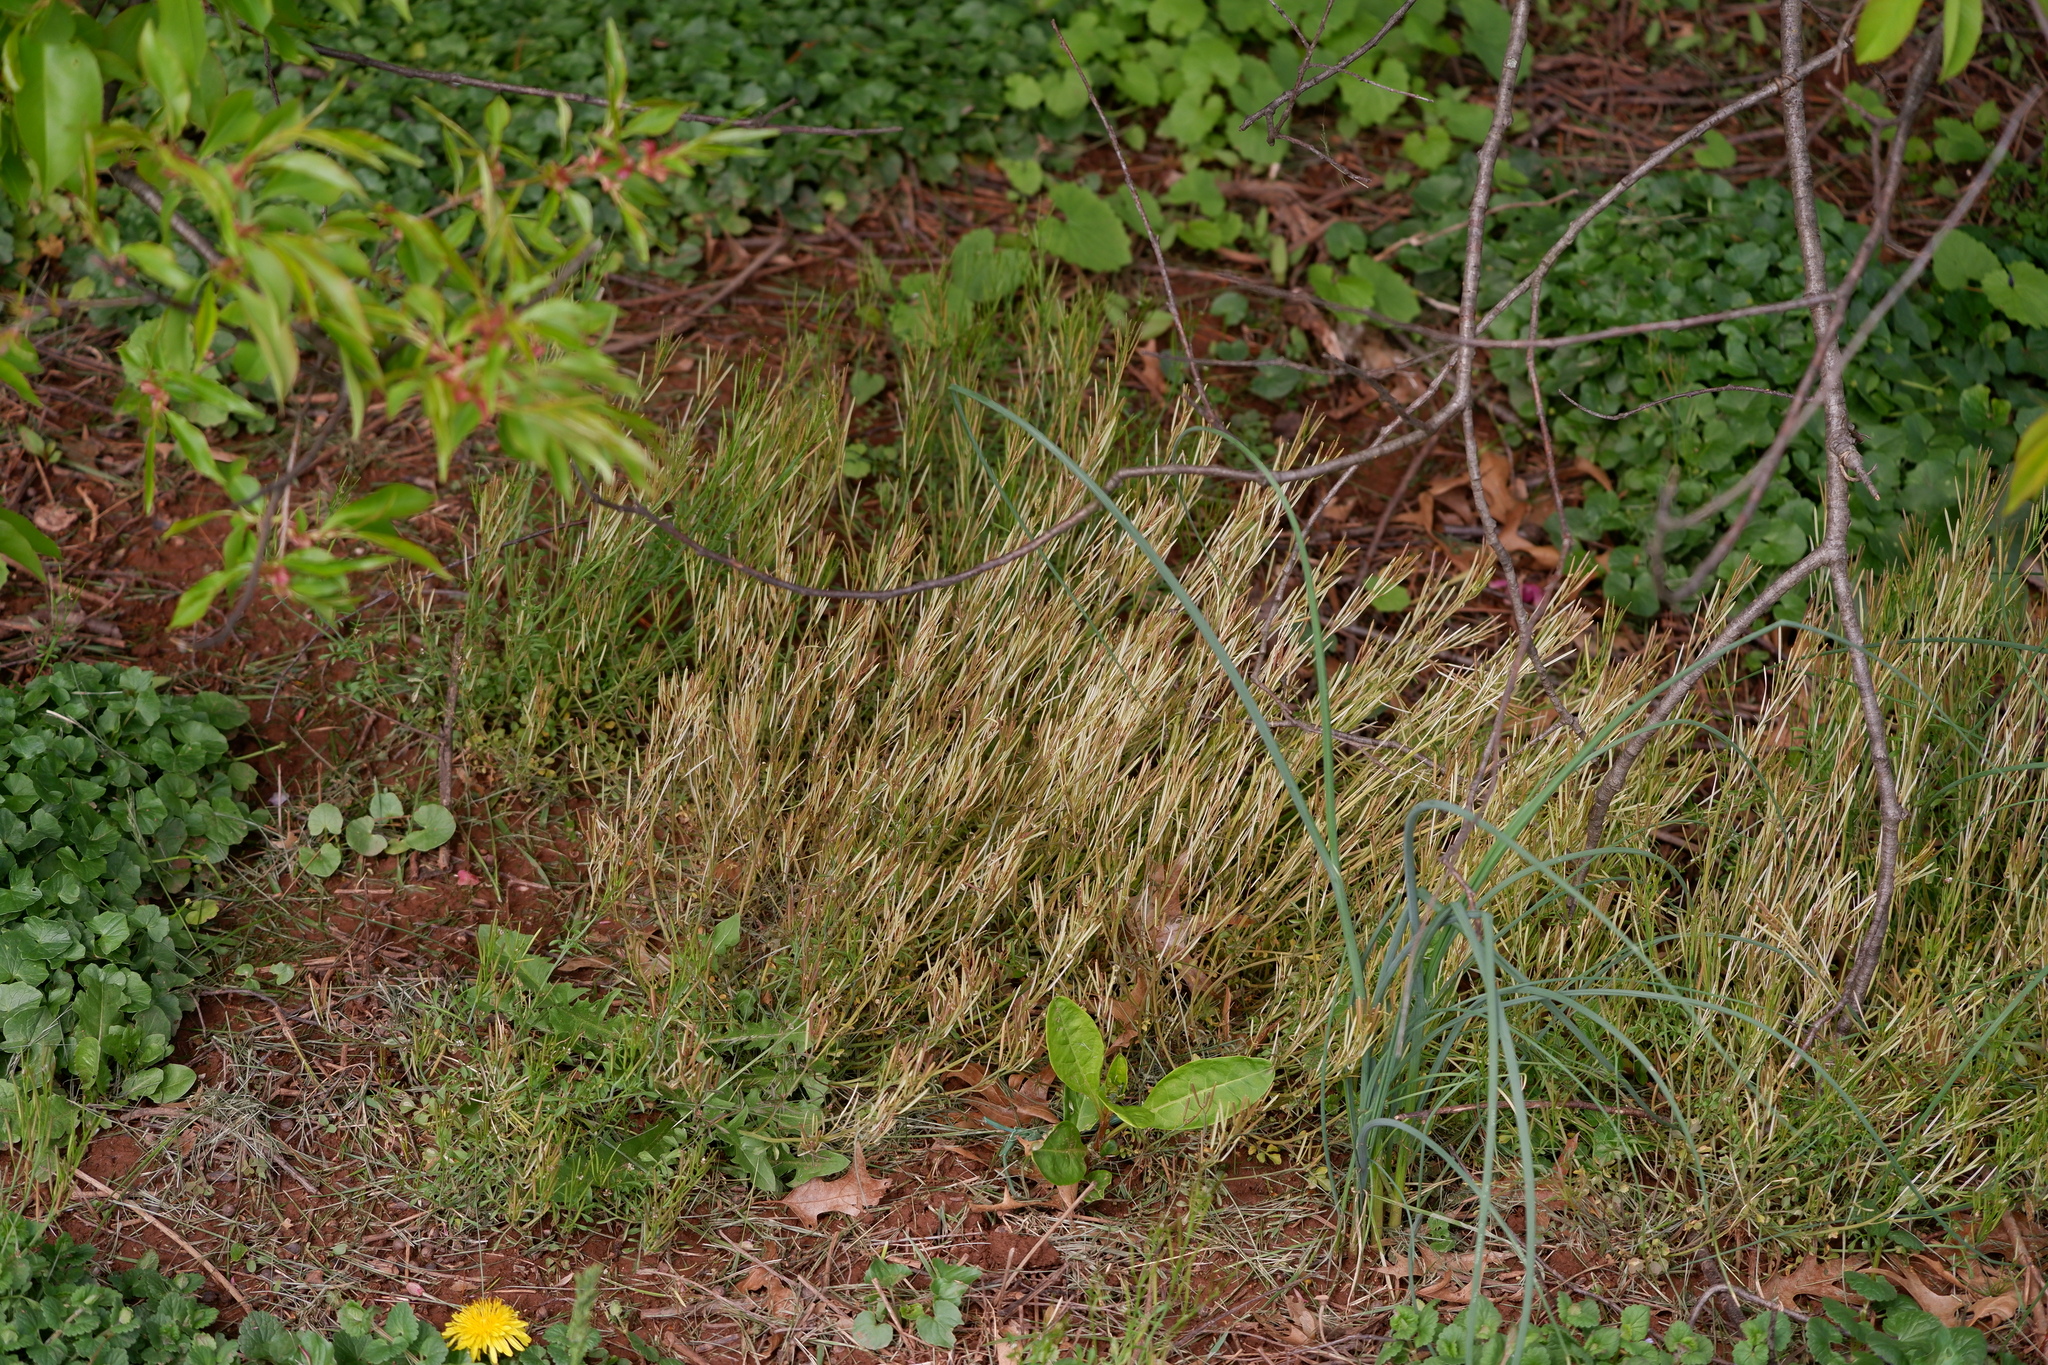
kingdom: Plantae
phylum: Tracheophyta
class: Magnoliopsida
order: Brassicales
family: Brassicaceae
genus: Cardamine
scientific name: Cardamine hirsuta
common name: Hairy bittercress
